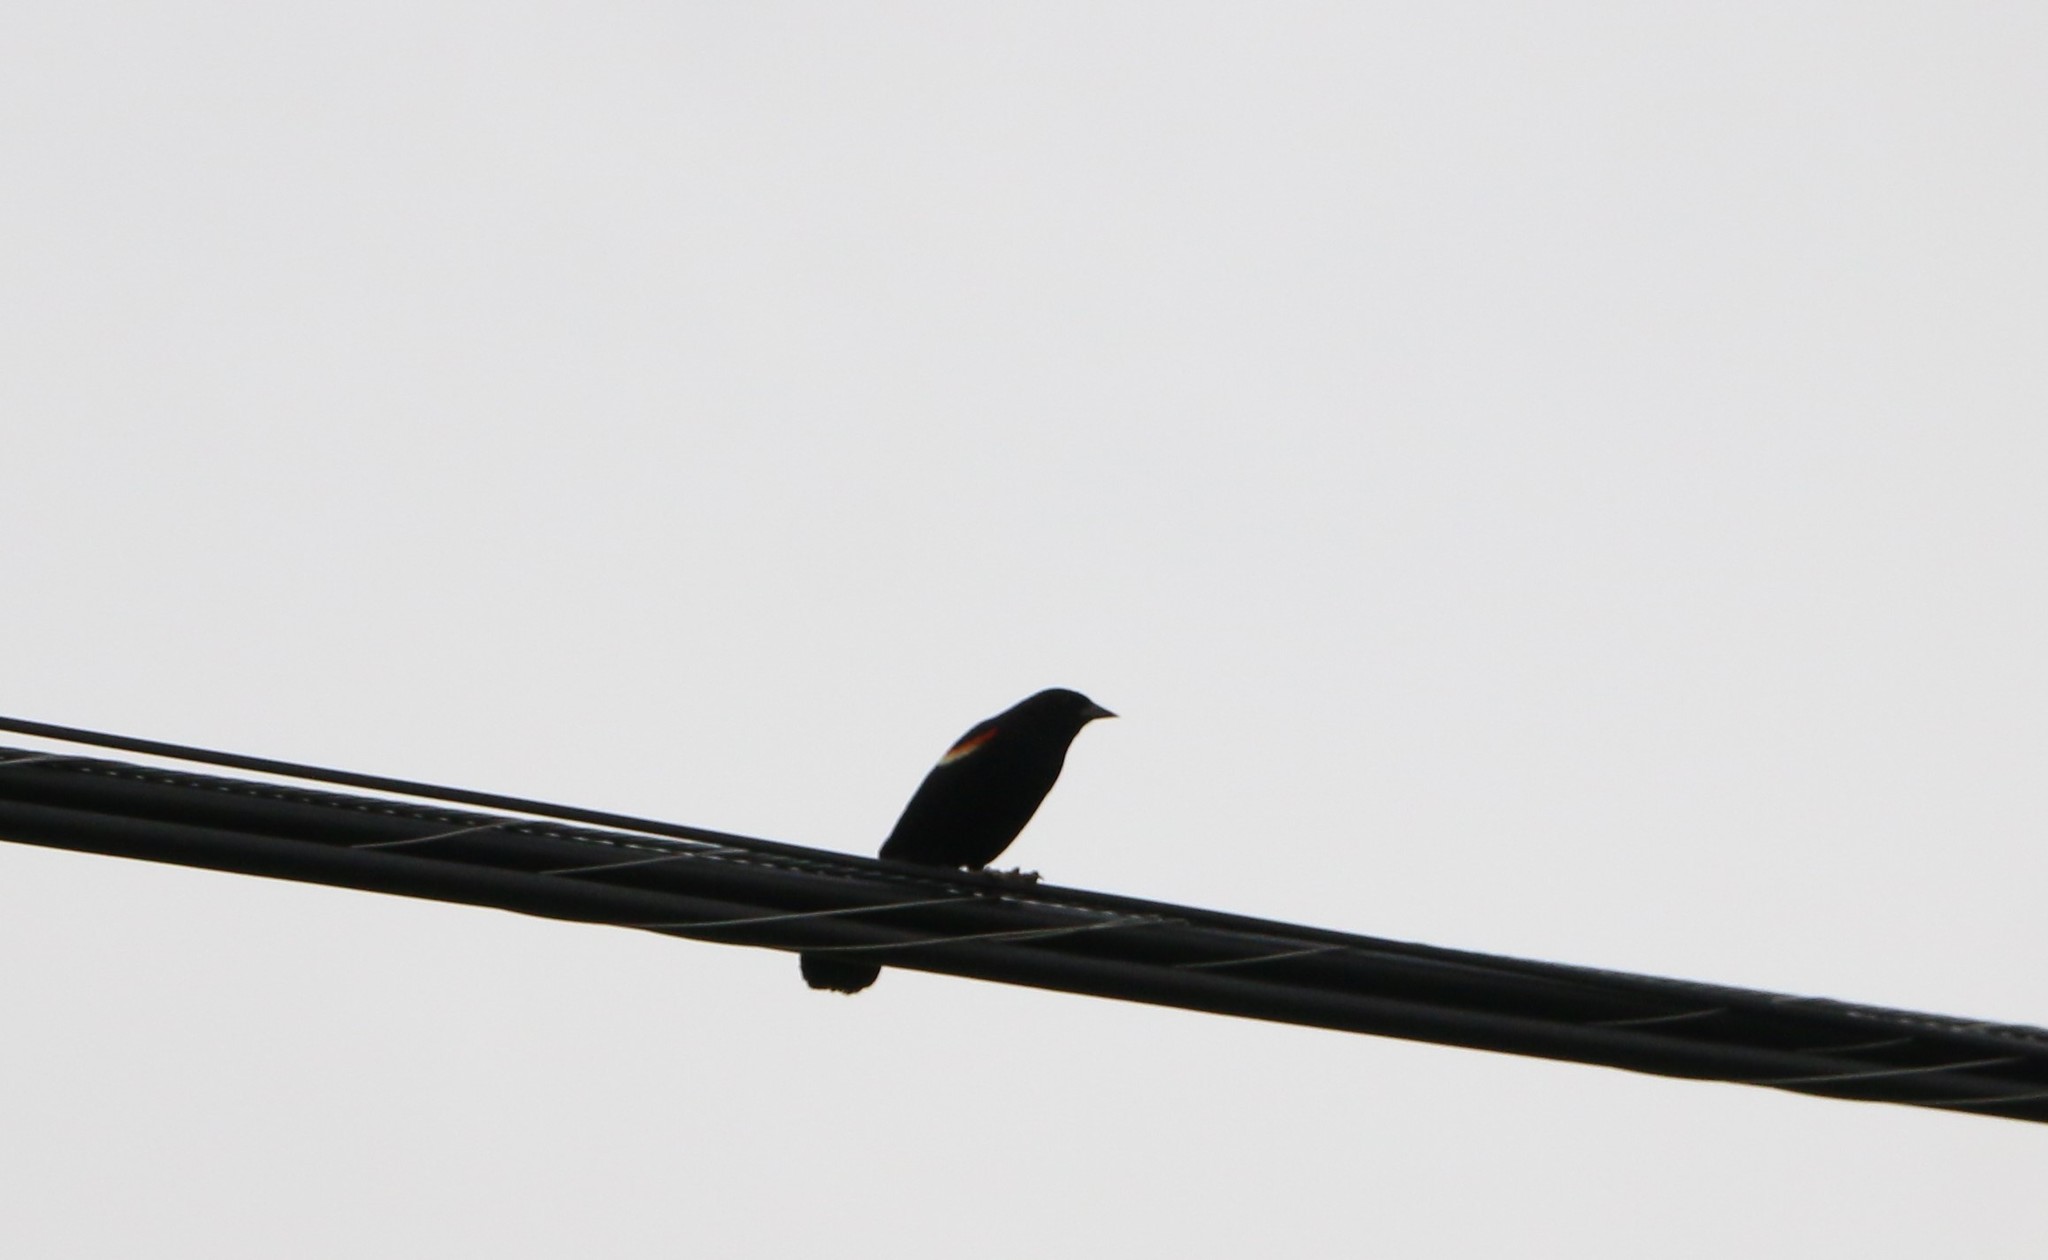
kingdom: Animalia
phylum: Chordata
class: Aves
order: Passeriformes
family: Icteridae
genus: Agelaius
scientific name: Agelaius phoeniceus
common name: Red-winged blackbird
